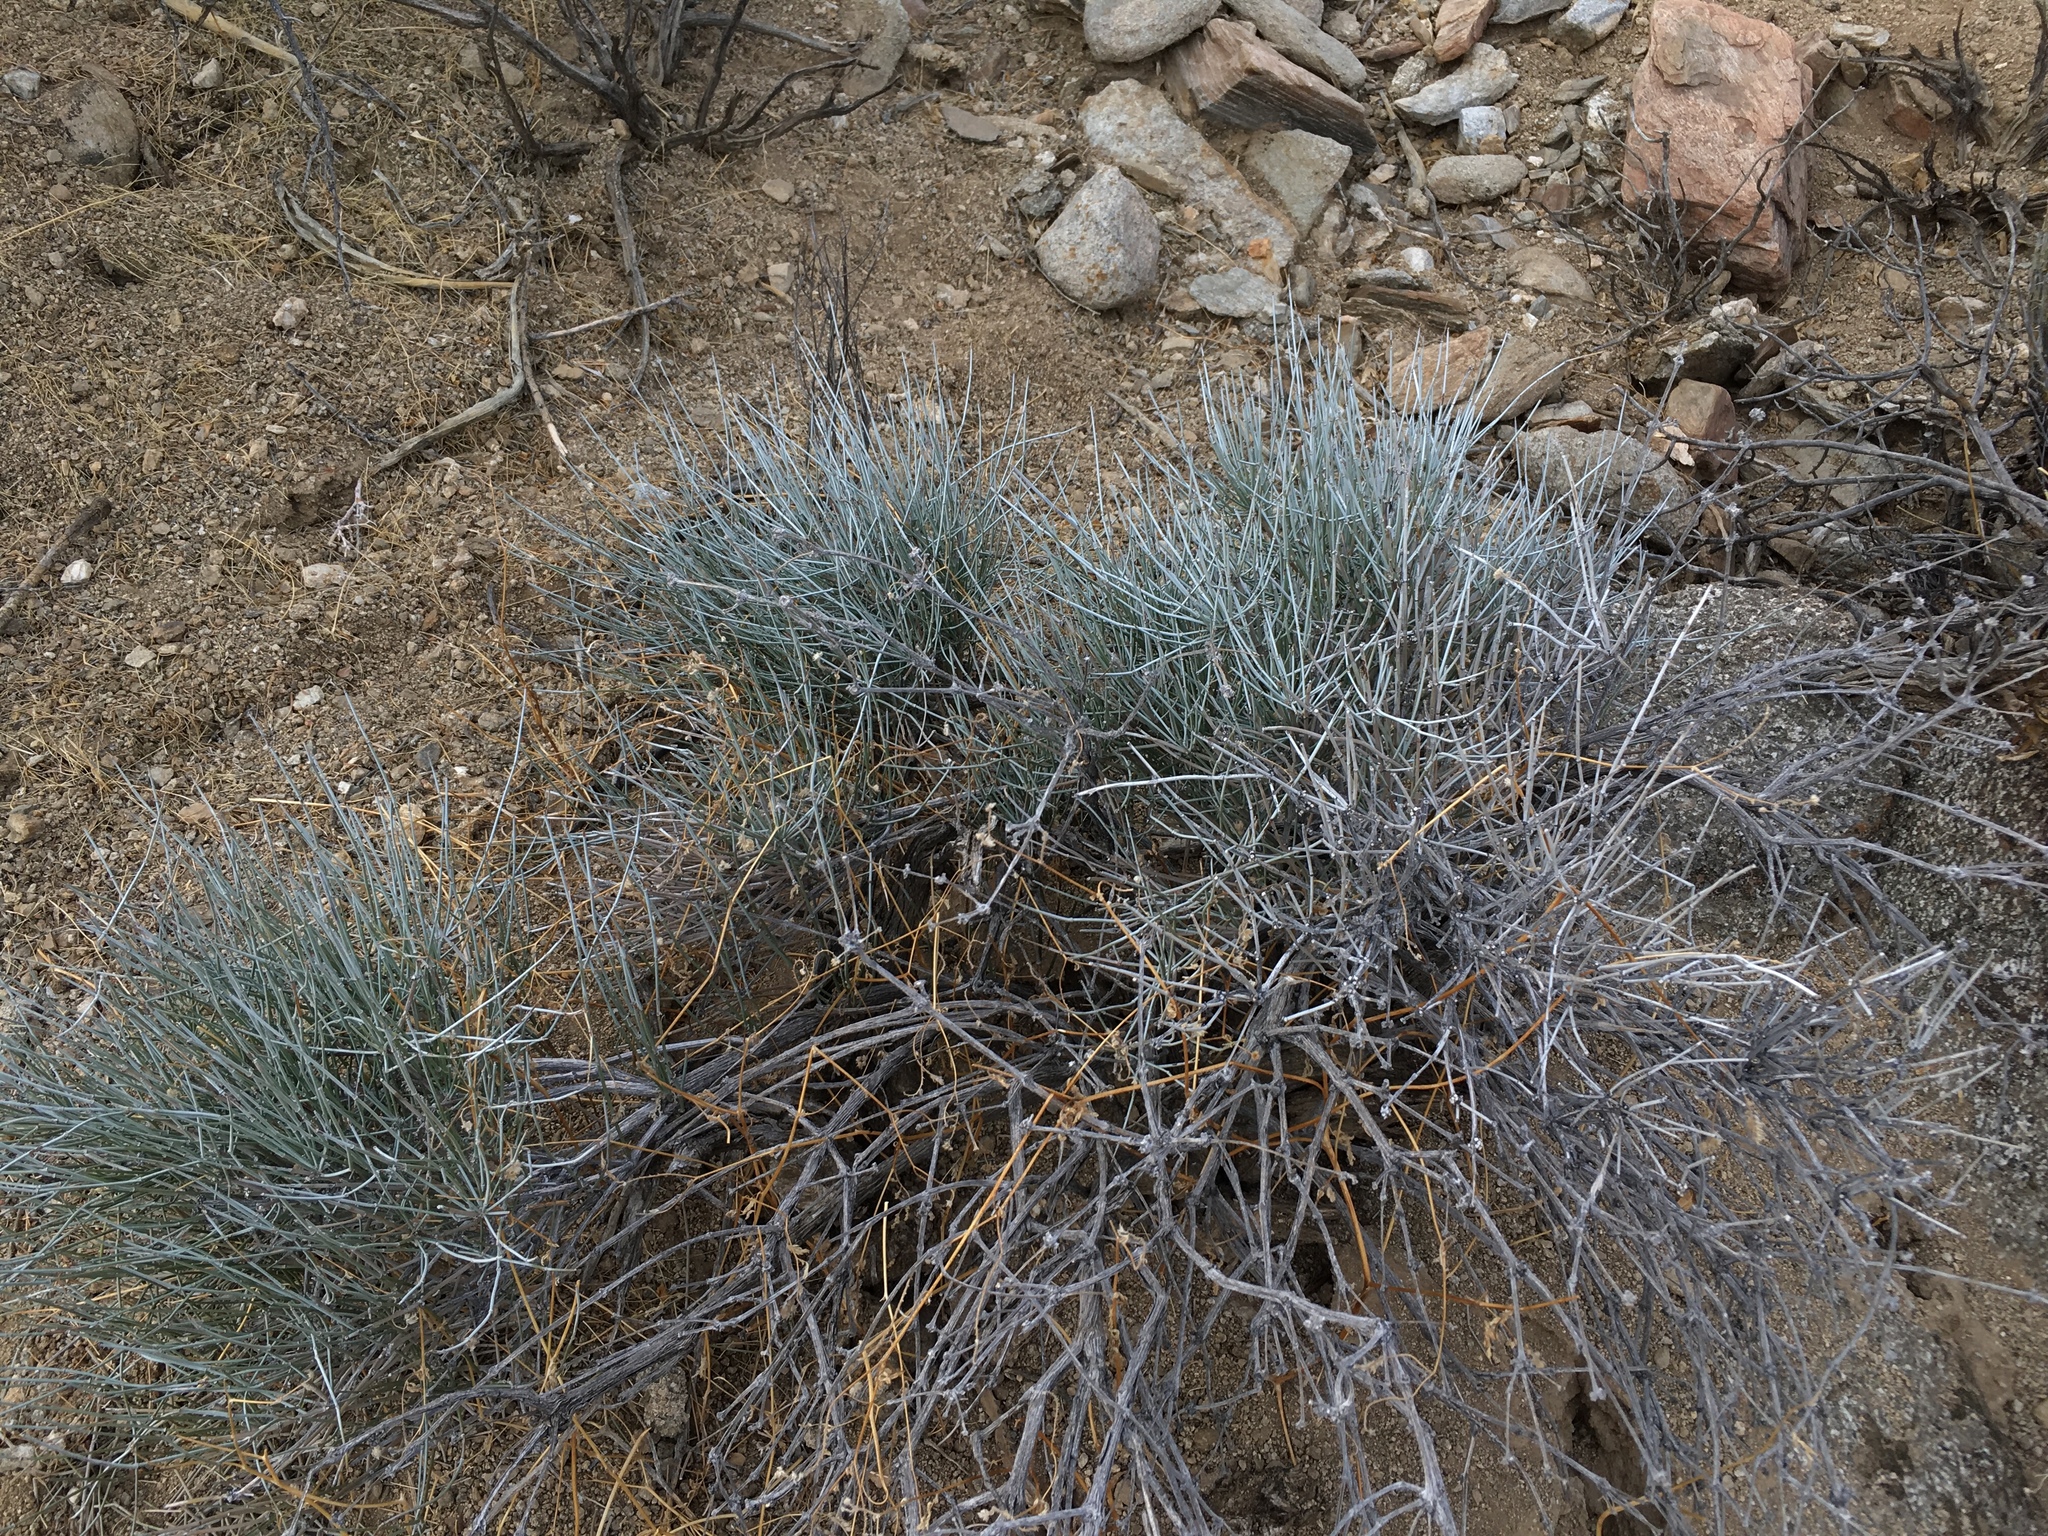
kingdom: Plantae
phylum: Tracheophyta
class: Gnetopsida
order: Ephedrales
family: Ephedraceae
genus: Ephedra
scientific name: Ephedra aspera
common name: Boundary ephedra
